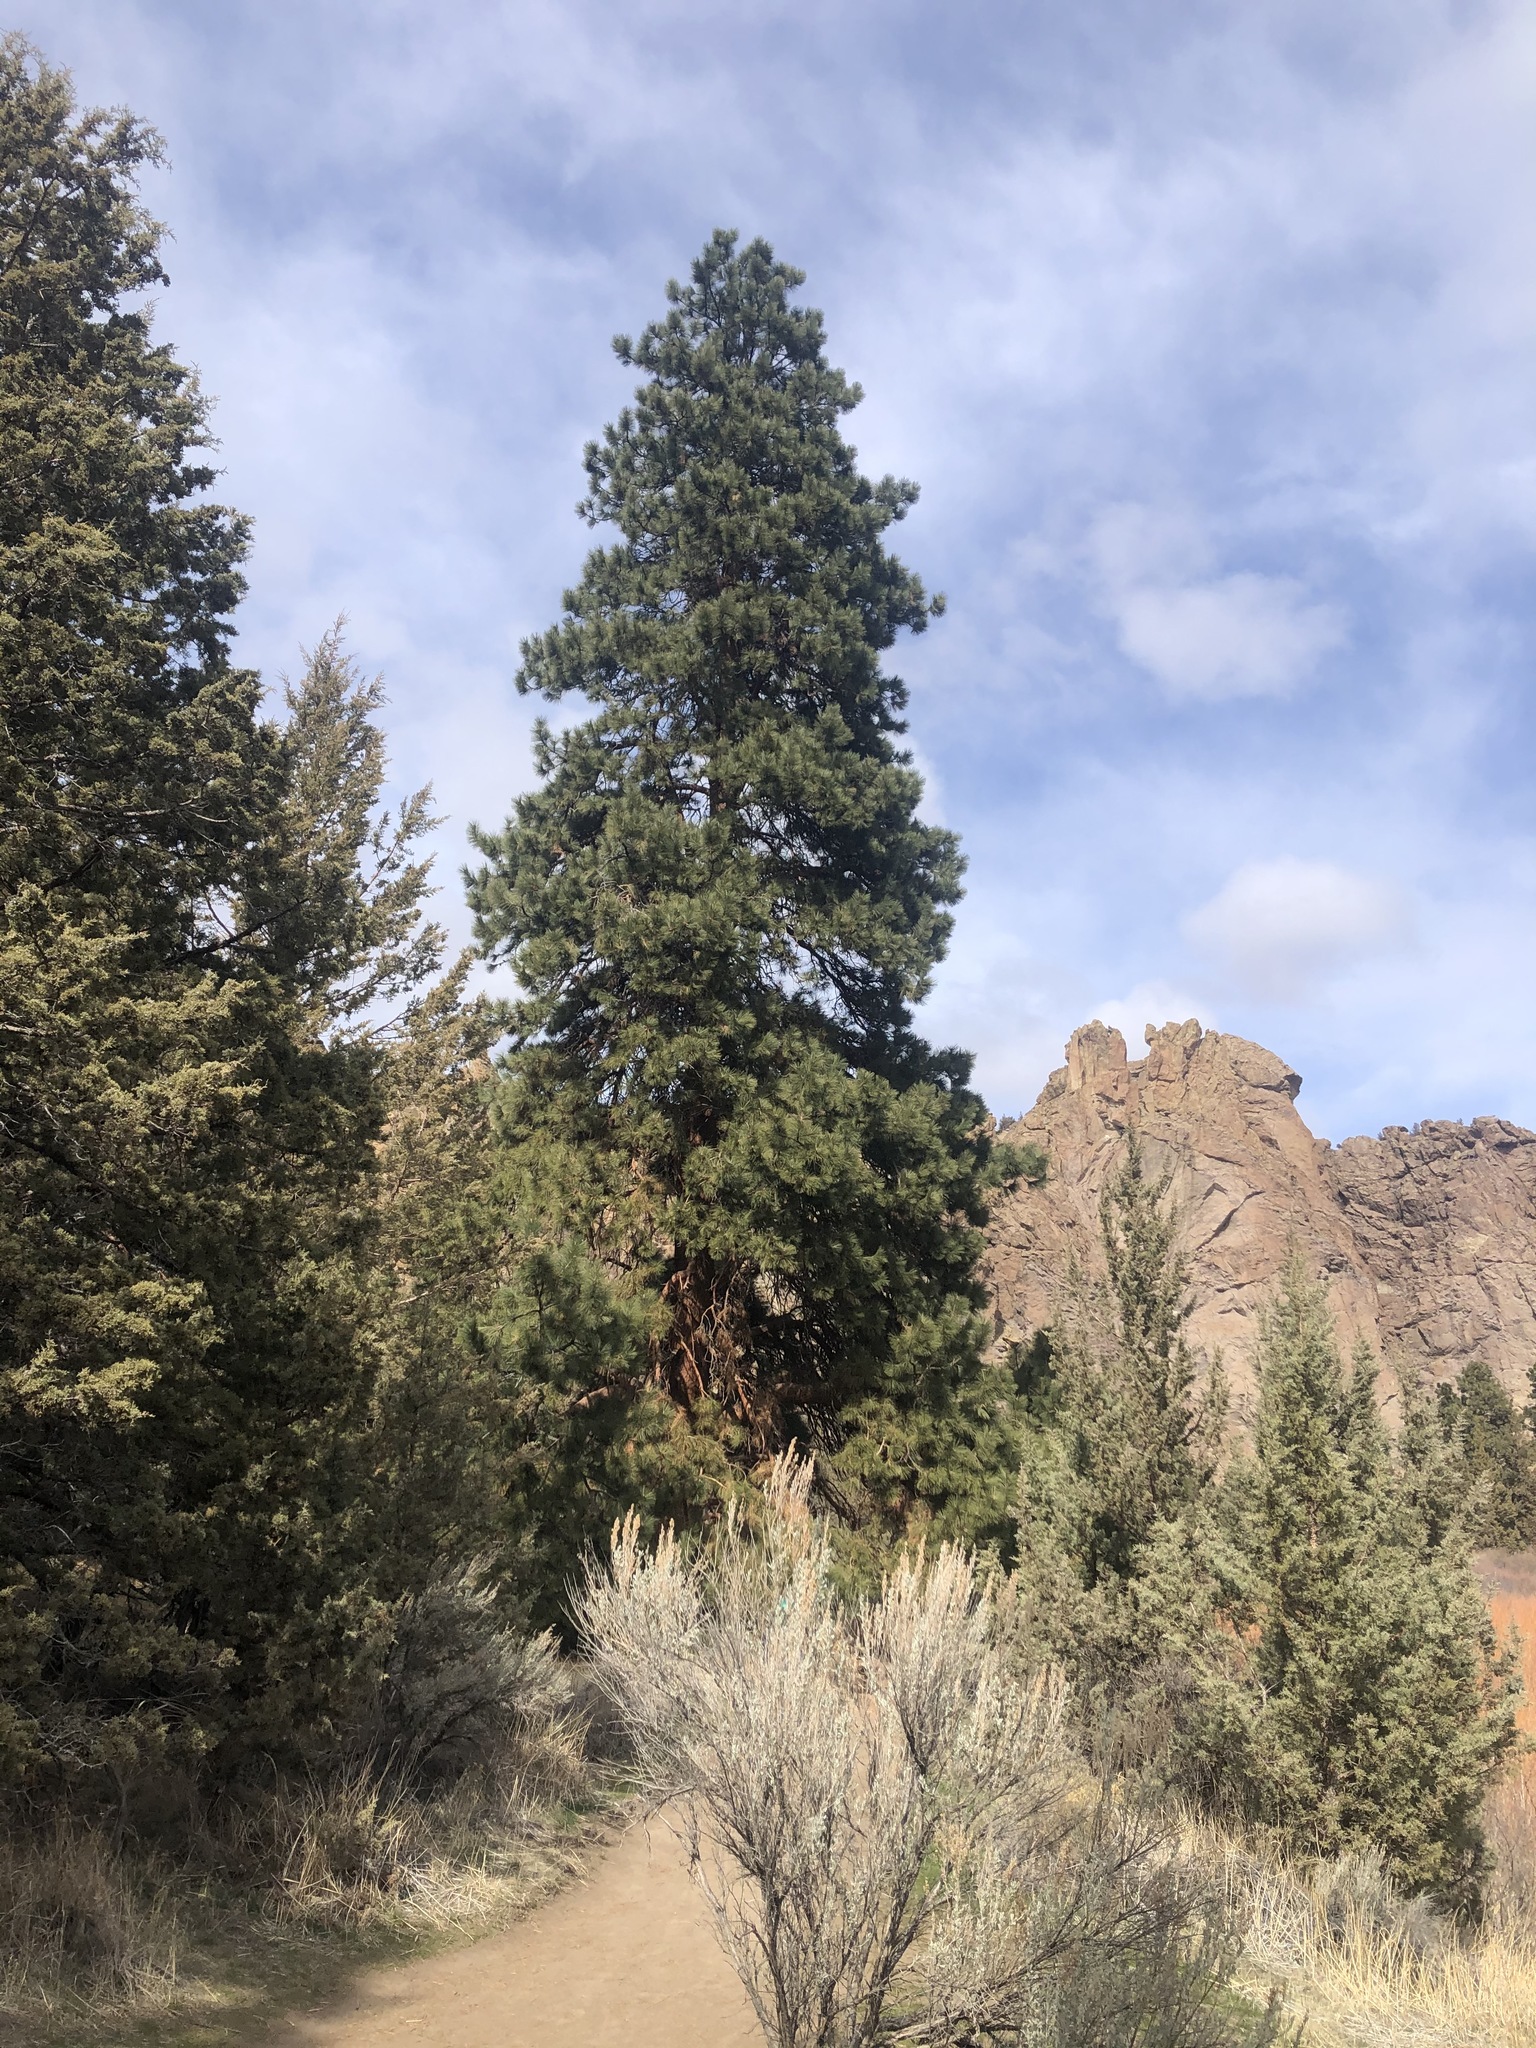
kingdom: Plantae
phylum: Tracheophyta
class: Pinopsida
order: Pinales
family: Pinaceae
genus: Pinus
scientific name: Pinus ponderosa
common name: Western yellow-pine
